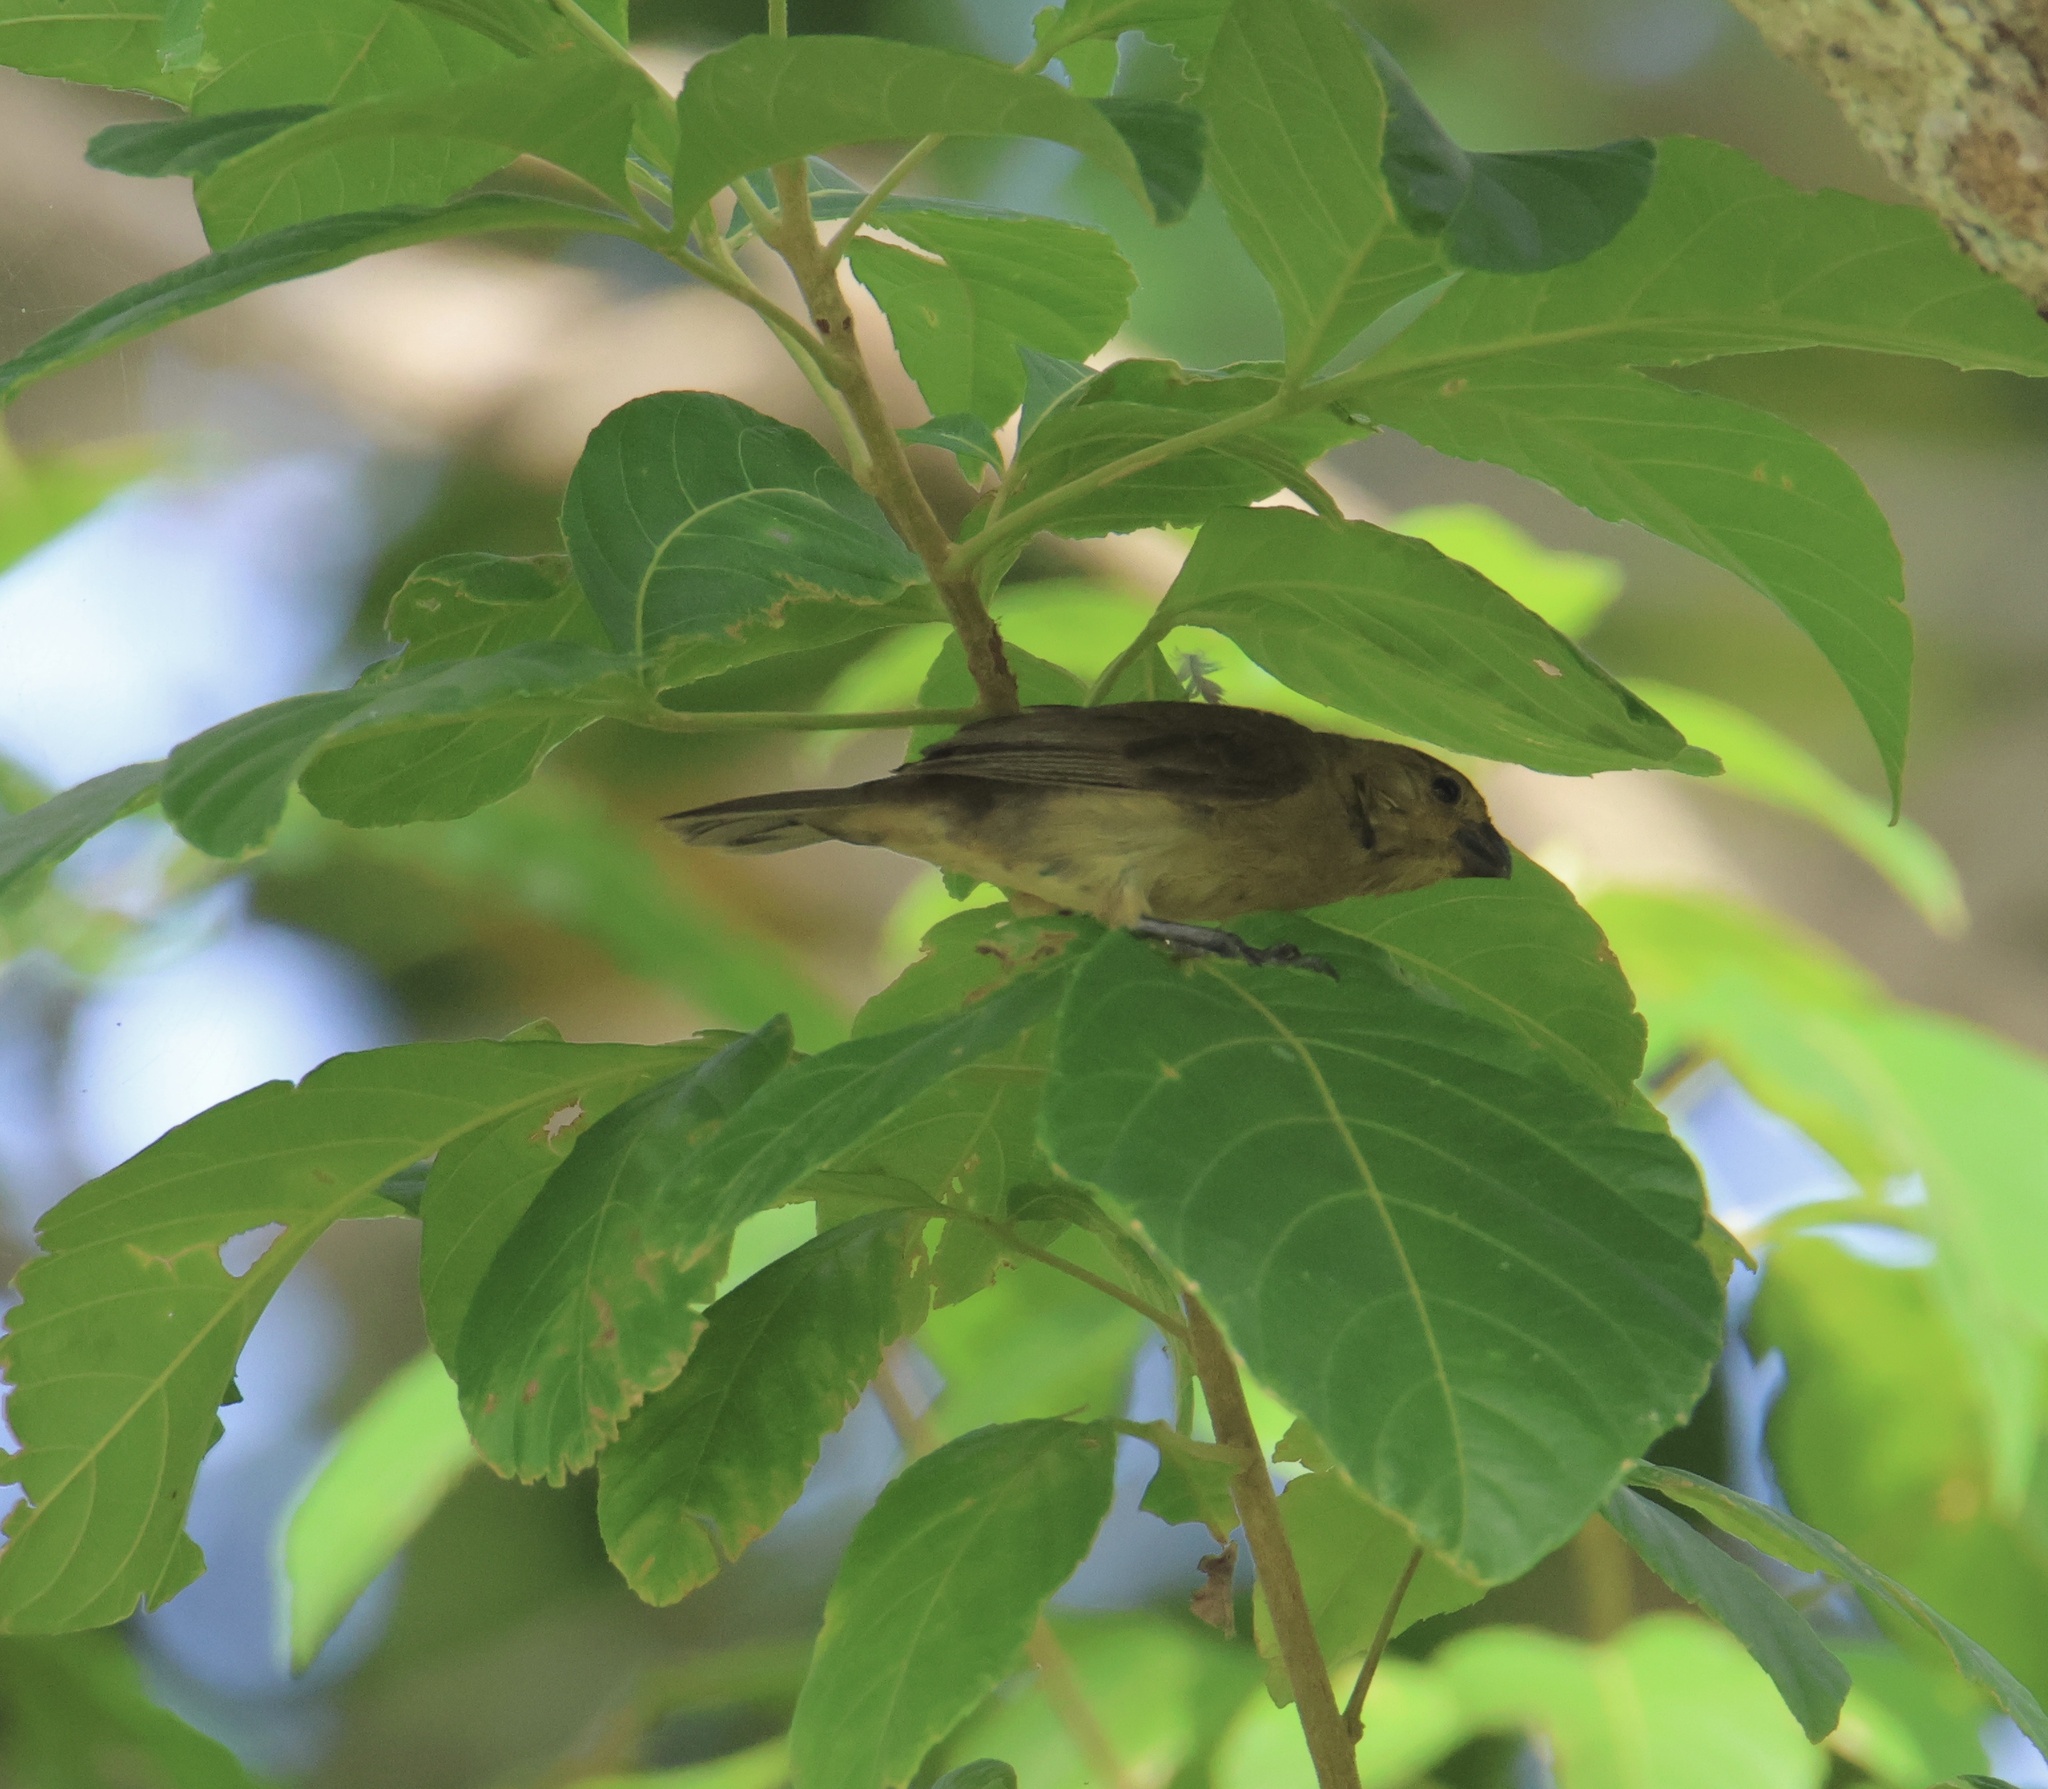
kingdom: Animalia
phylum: Chordata
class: Aves
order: Passeriformes
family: Thraupidae
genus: Sporophila
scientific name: Sporophila corvina
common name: Variable seedeater
